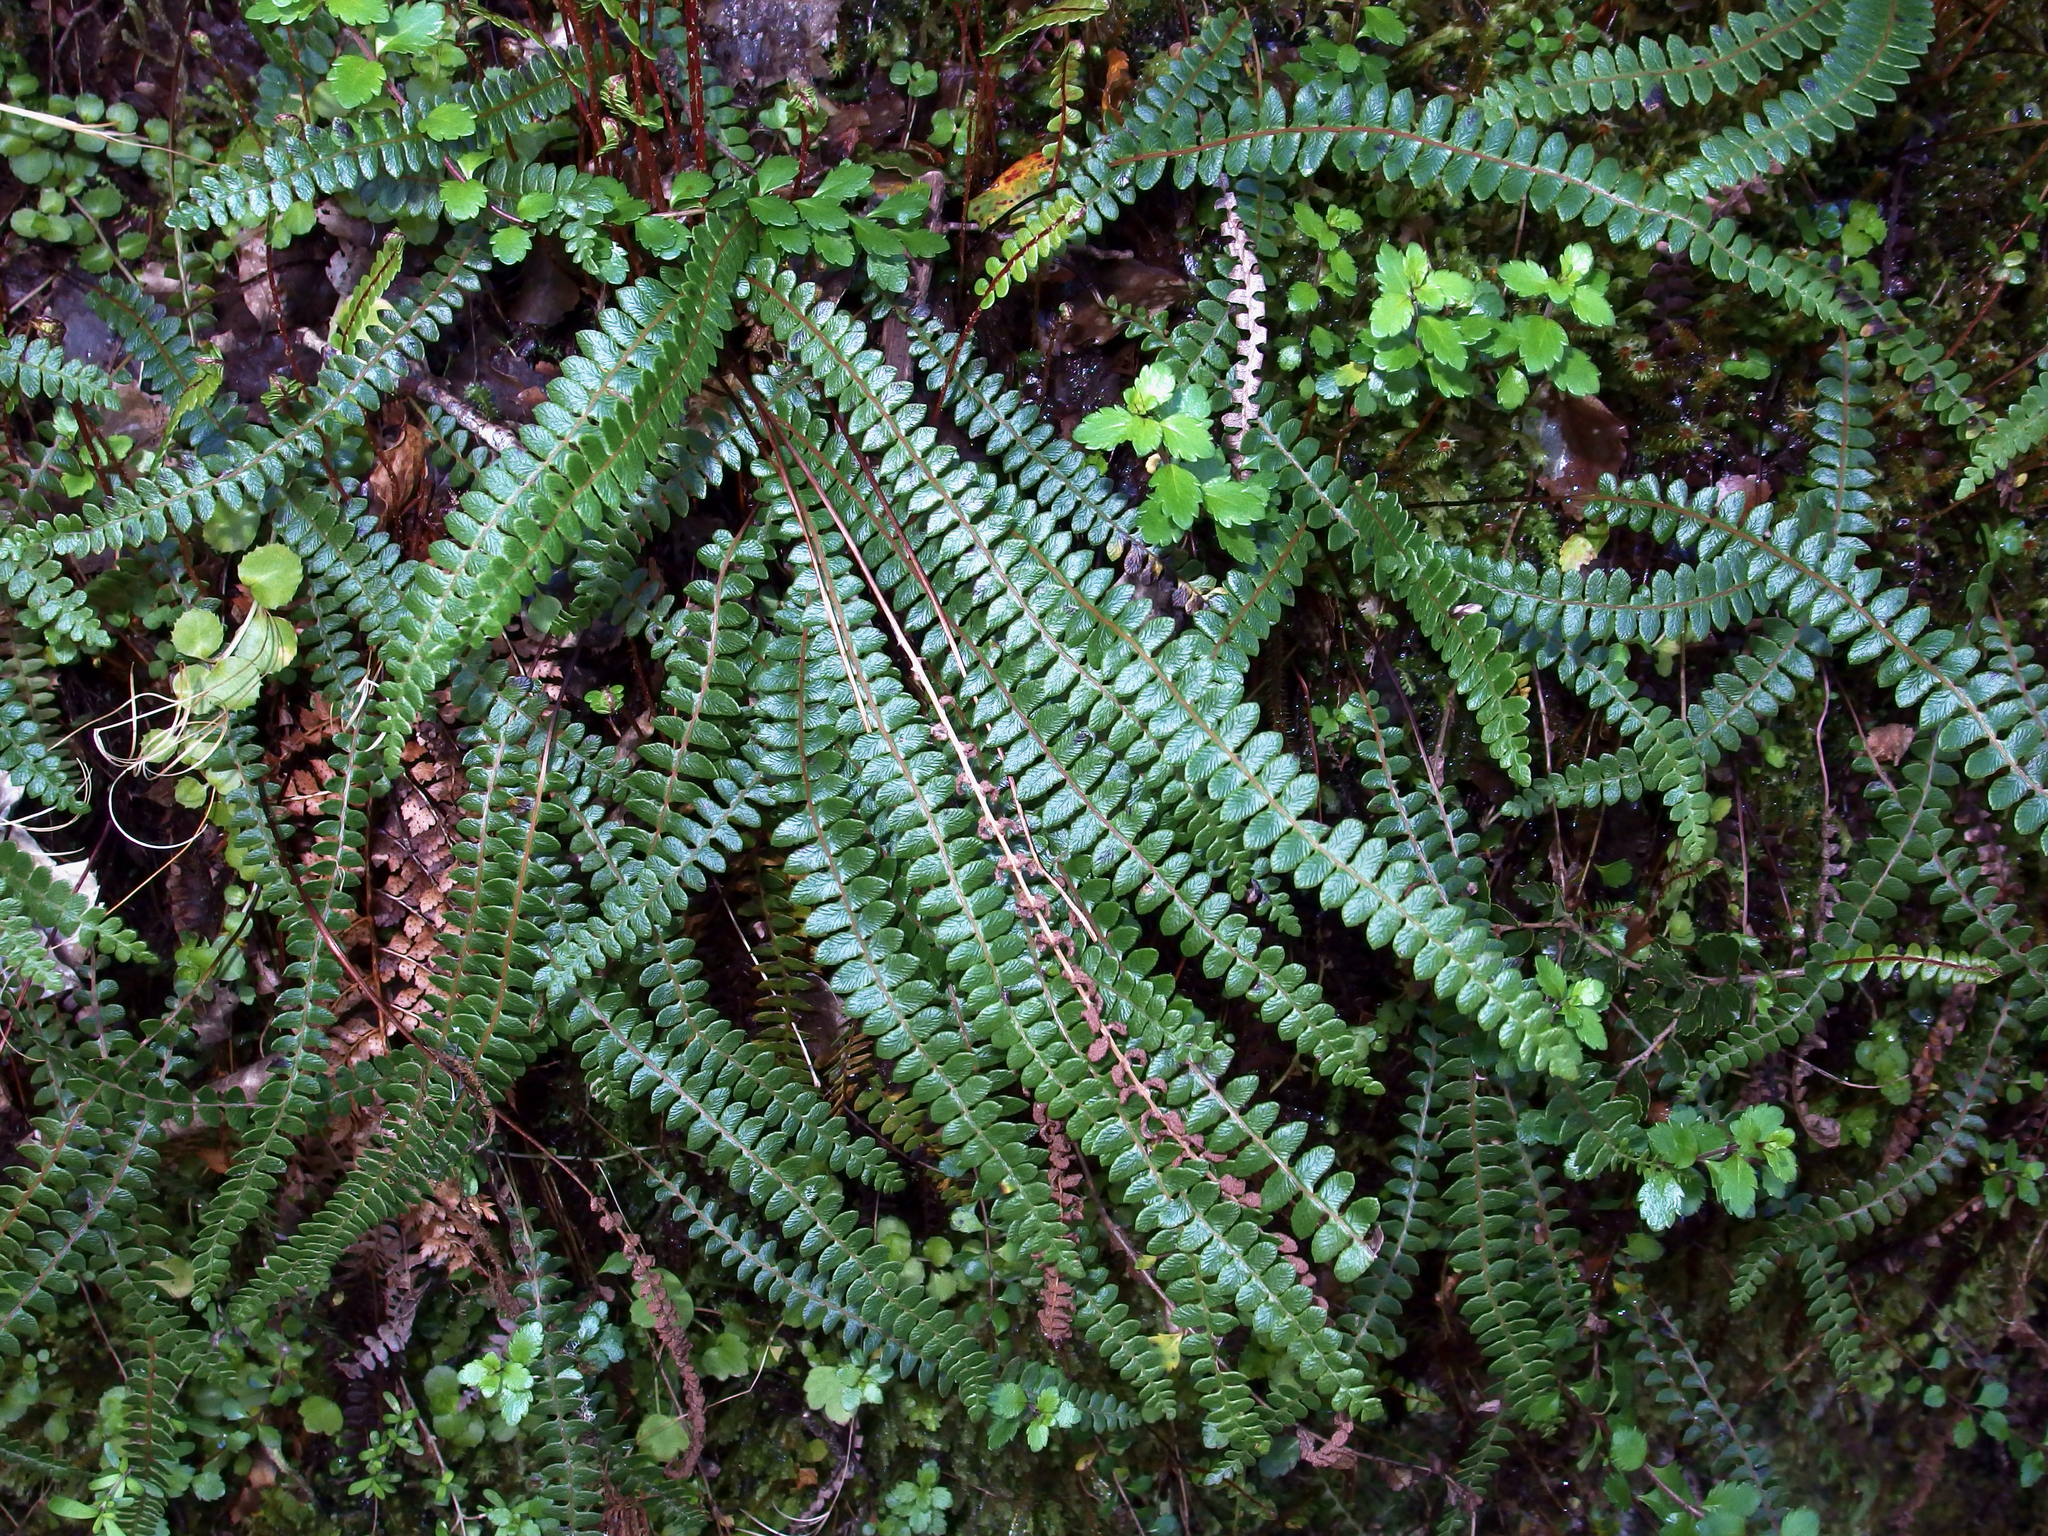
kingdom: Plantae
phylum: Tracheophyta
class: Polypodiopsida
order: Polypodiales
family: Blechnaceae
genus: Austroblechnum
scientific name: Austroblechnum penna-marina
